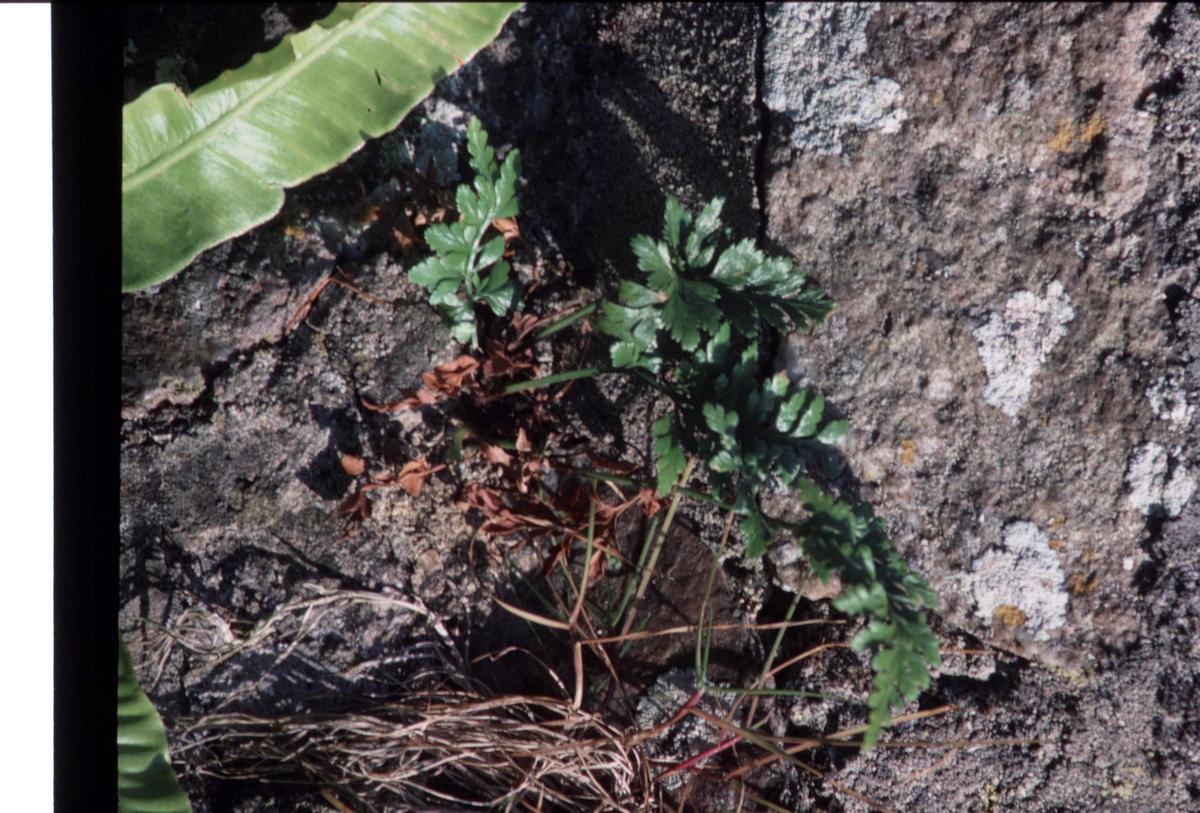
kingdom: Plantae
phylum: Tracheophyta
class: Polypodiopsida
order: Polypodiales
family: Aspleniaceae
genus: Asplenium
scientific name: Asplenium adiantum-nigrum
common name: Black spleenwort
